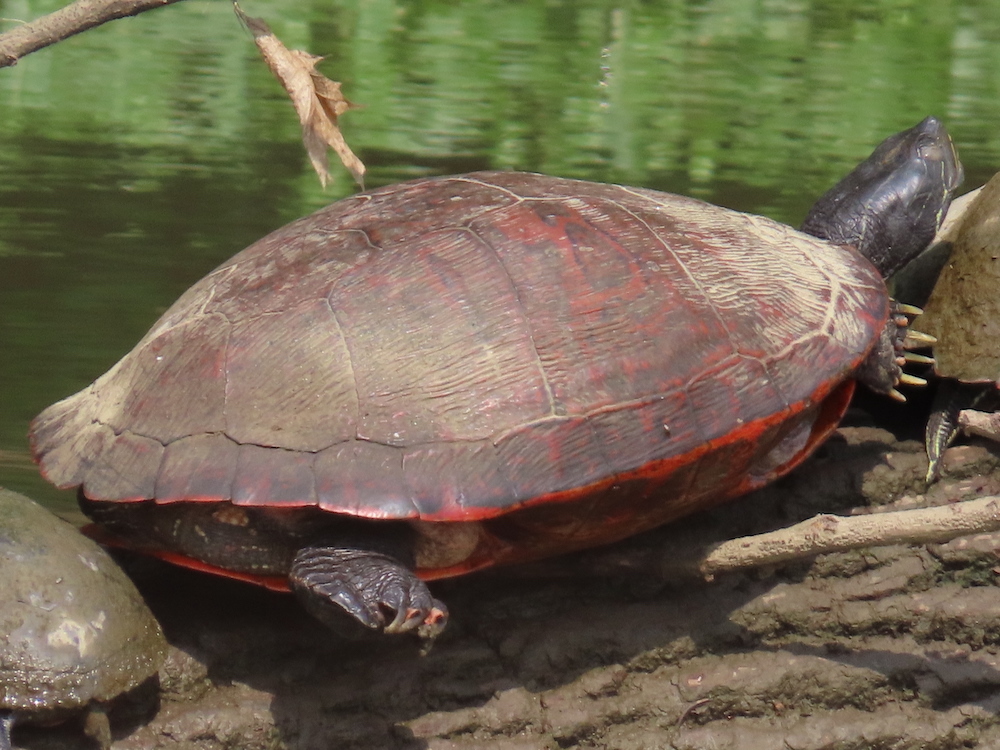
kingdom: Animalia
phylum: Chordata
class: Testudines
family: Emydidae
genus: Pseudemys
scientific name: Pseudemys rubriventris
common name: American red-bellied turtle
